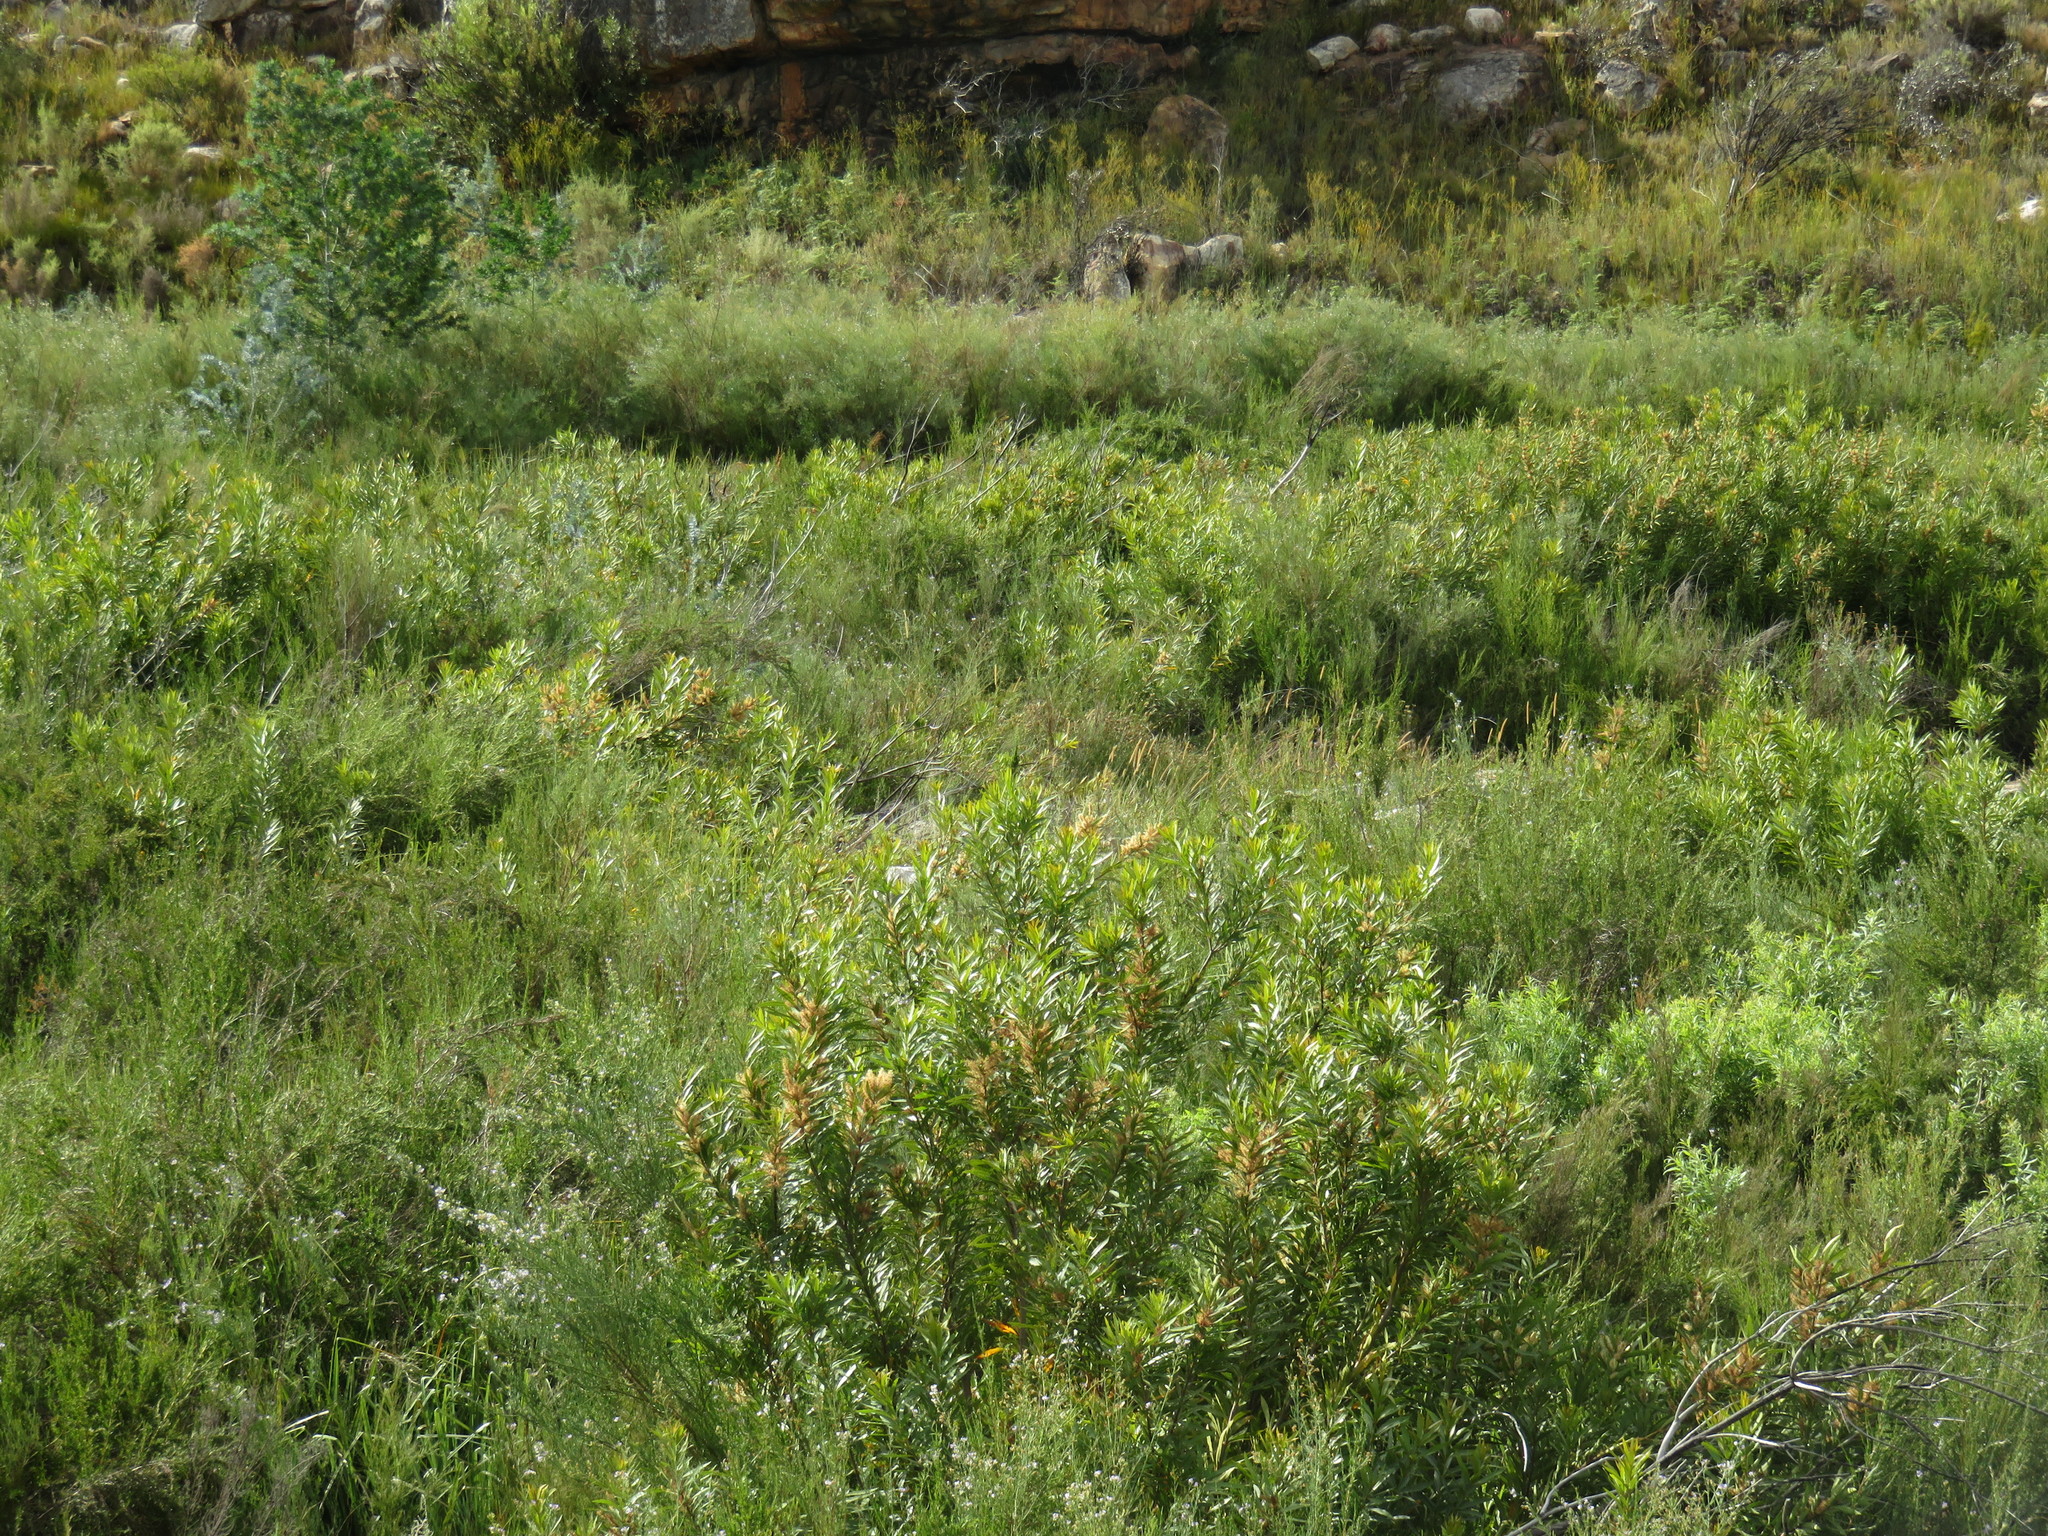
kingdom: Plantae
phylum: Tracheophyta
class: Magnoliopsida
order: Proteales
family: Proteaceae
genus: Brabejum
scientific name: Brabejum stellatifolium
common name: Wild almond
